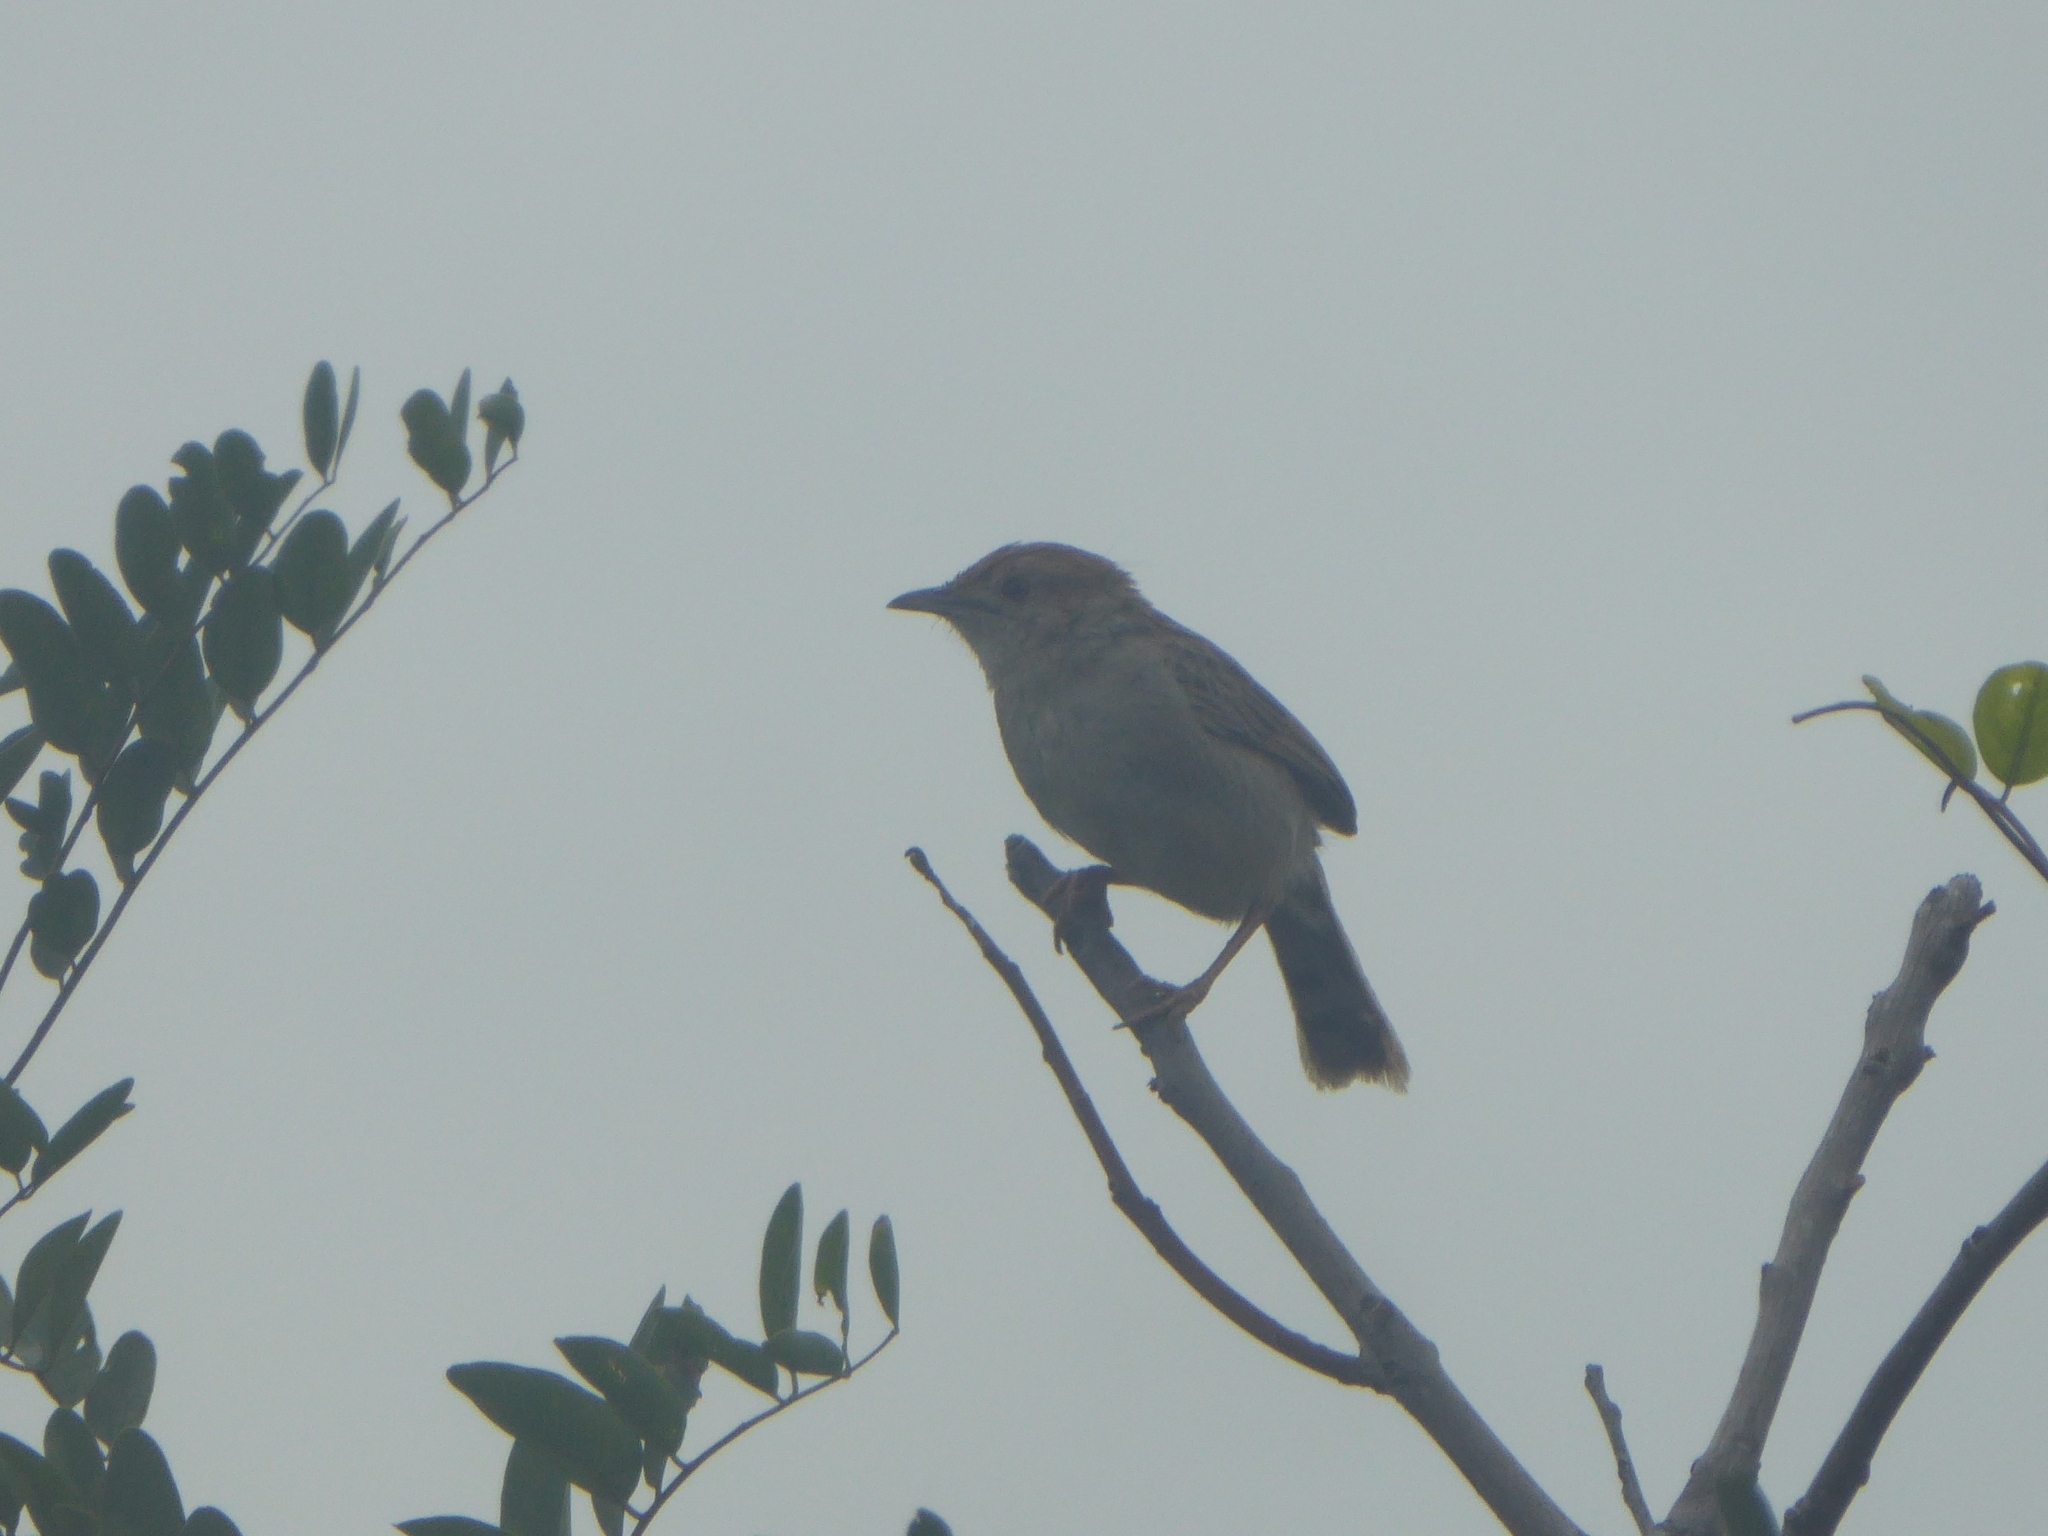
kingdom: Animalia
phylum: Chordata
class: Aves
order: Passeriformes
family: Cisticolidae
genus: Cisticola
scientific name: Cisticola chiniana
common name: Rattling cisticola
